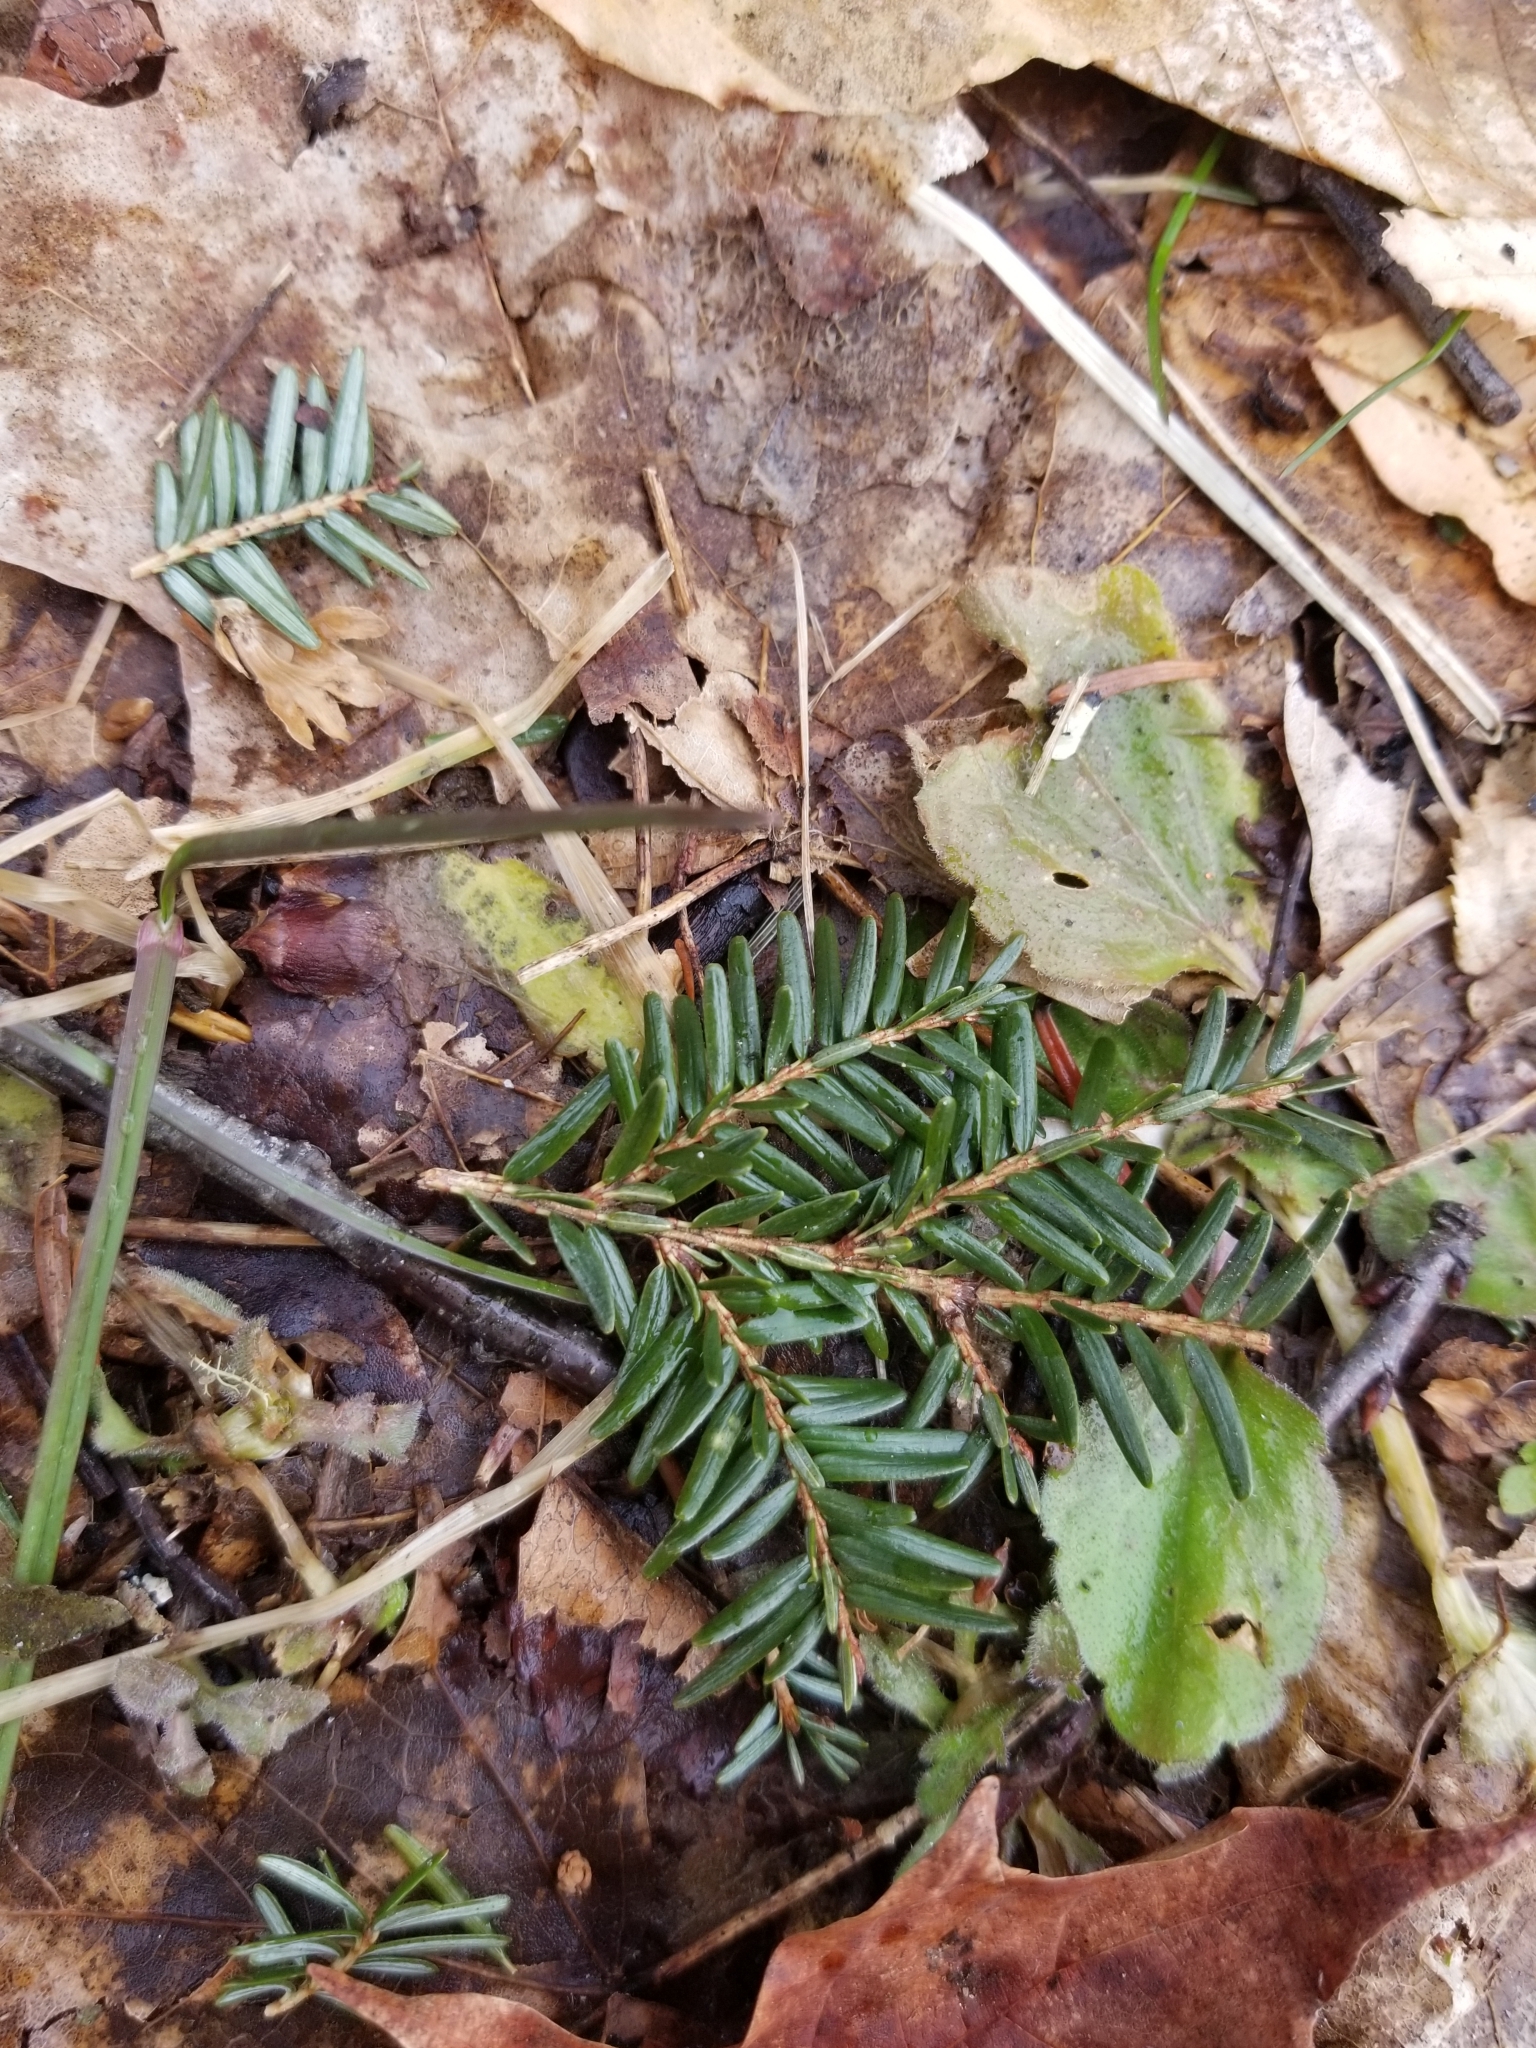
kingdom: Plantae
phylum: Tracheophyta
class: Pinopsida
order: Pinales
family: Pinaceae
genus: Tsuga
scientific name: Tsuga canadensis
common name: Eastern hemlock
